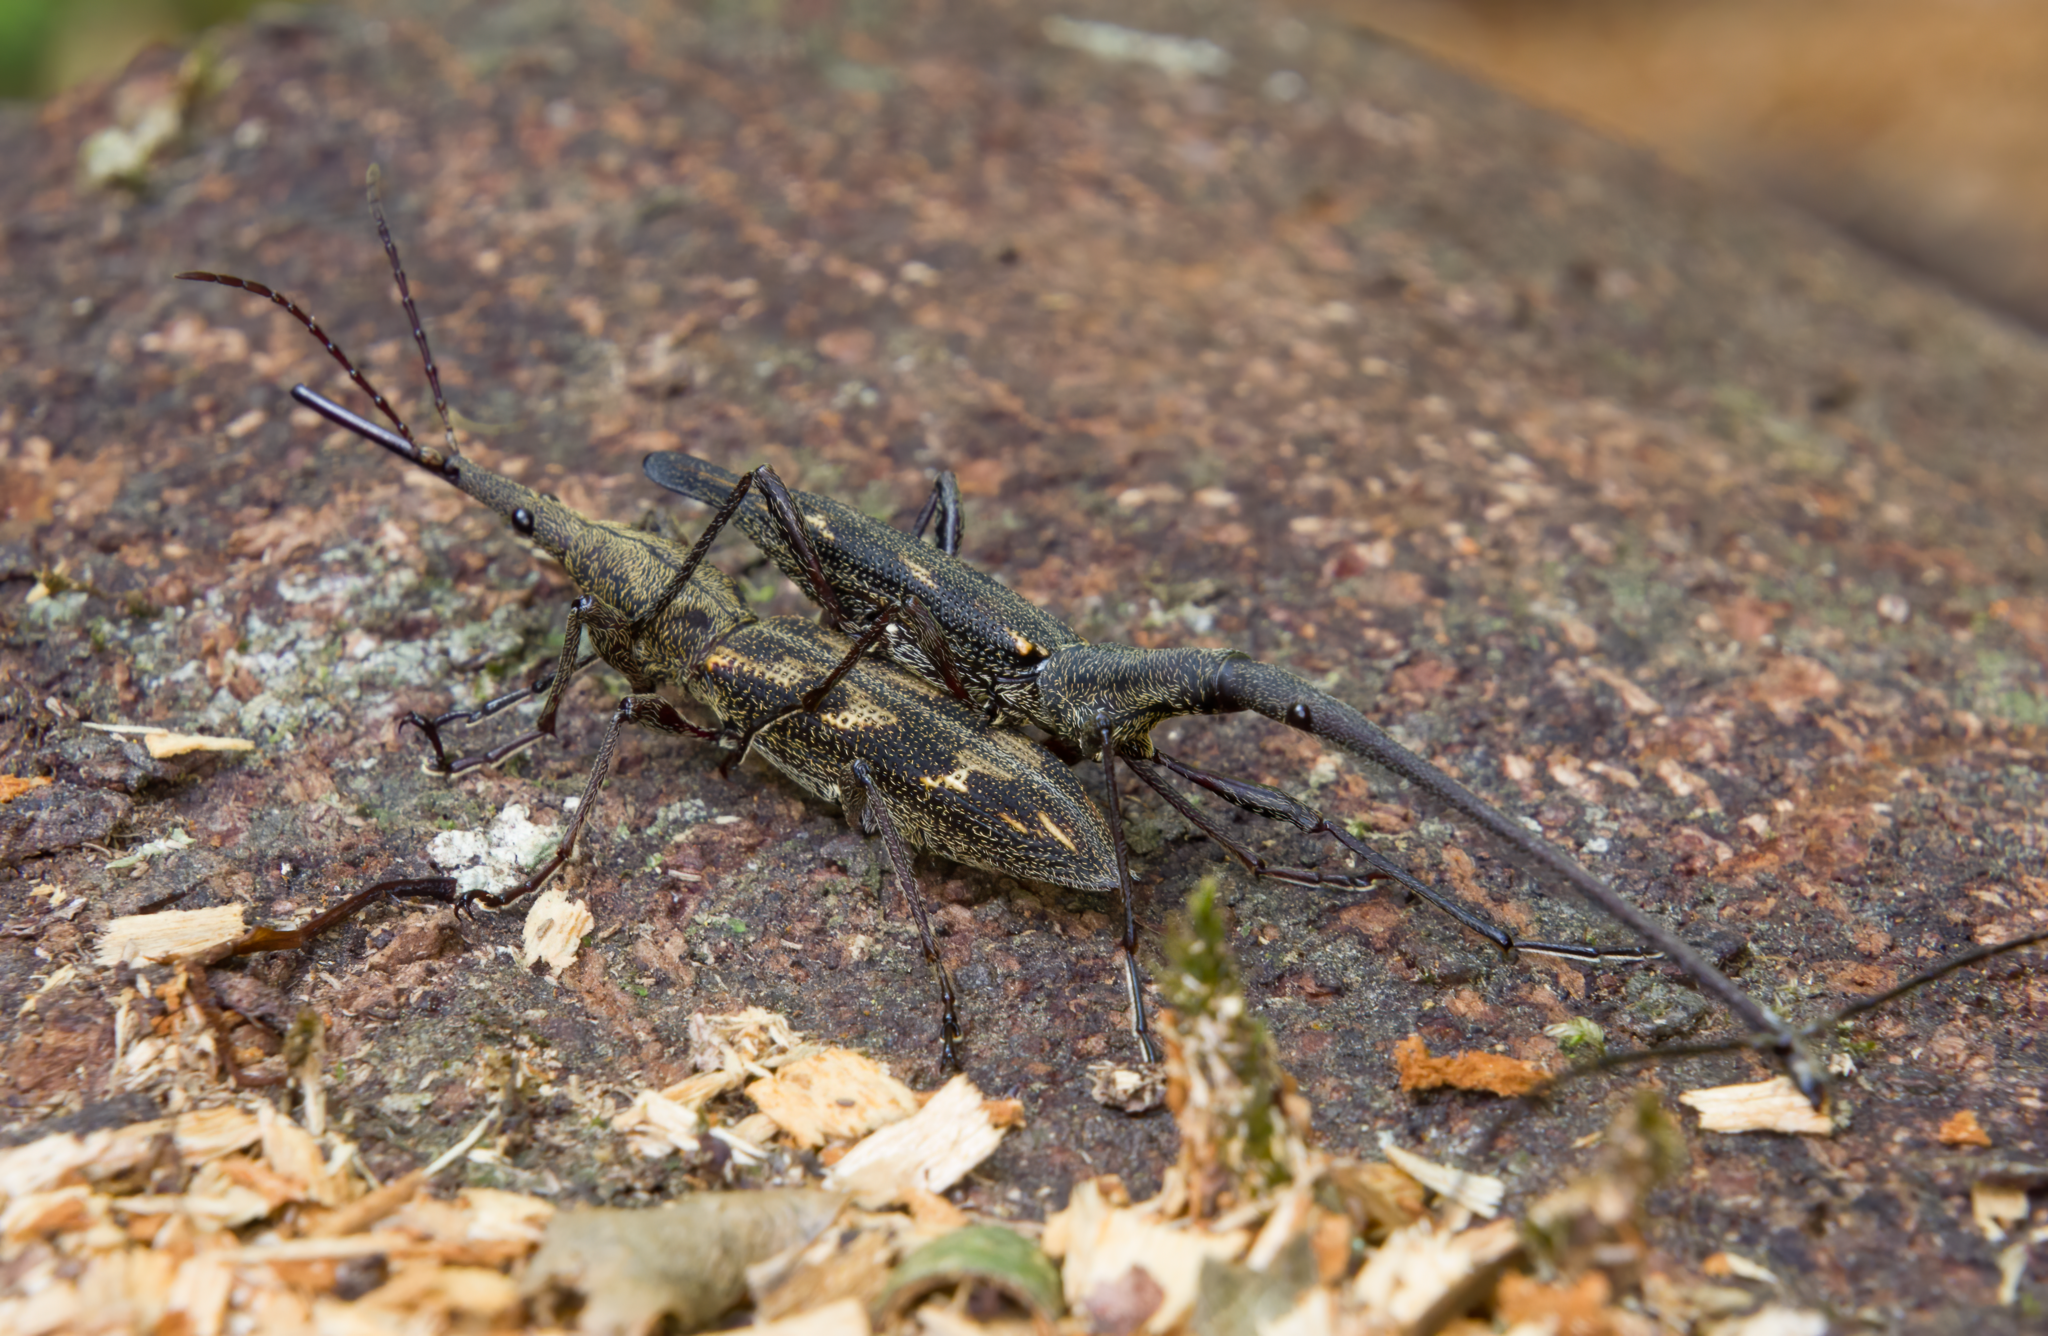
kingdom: Animalia
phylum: Arthropoda
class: Insecta
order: Coleoptera
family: Brentidae
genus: Lasiorhynchus
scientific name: Lasiorhynchus barbicornis
